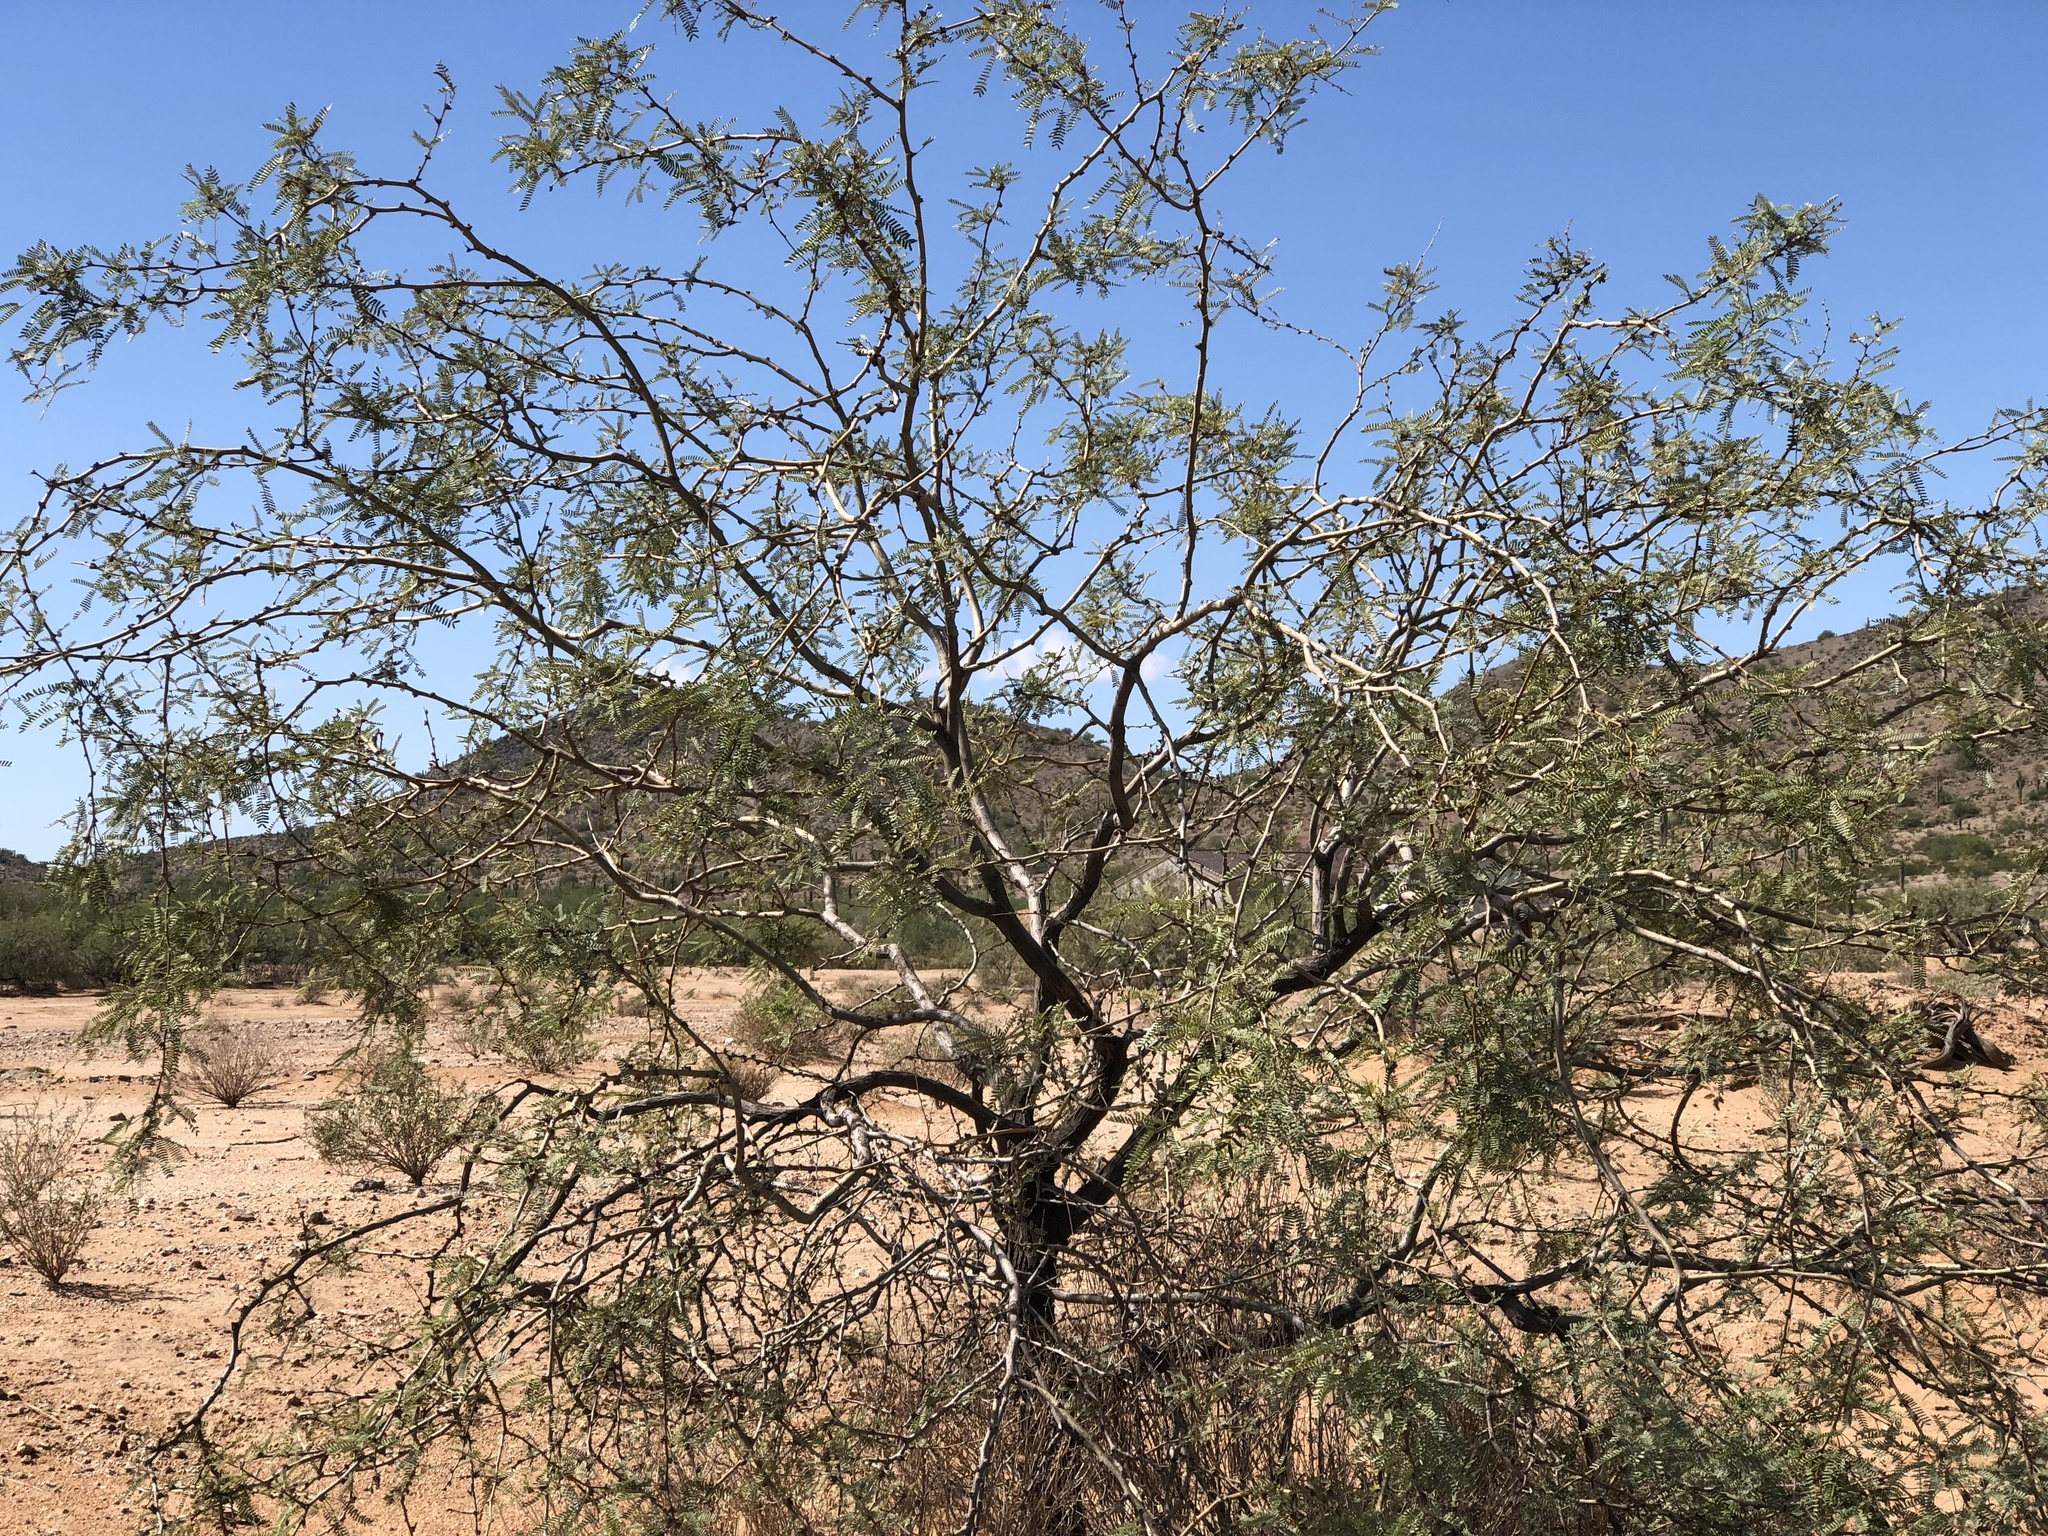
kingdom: Plantae
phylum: Tracheophyta
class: Magnoliopsida
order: Fabales
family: Fabaceae
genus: Prosopis
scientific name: Prosopis velutina
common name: Velvet mesquite
